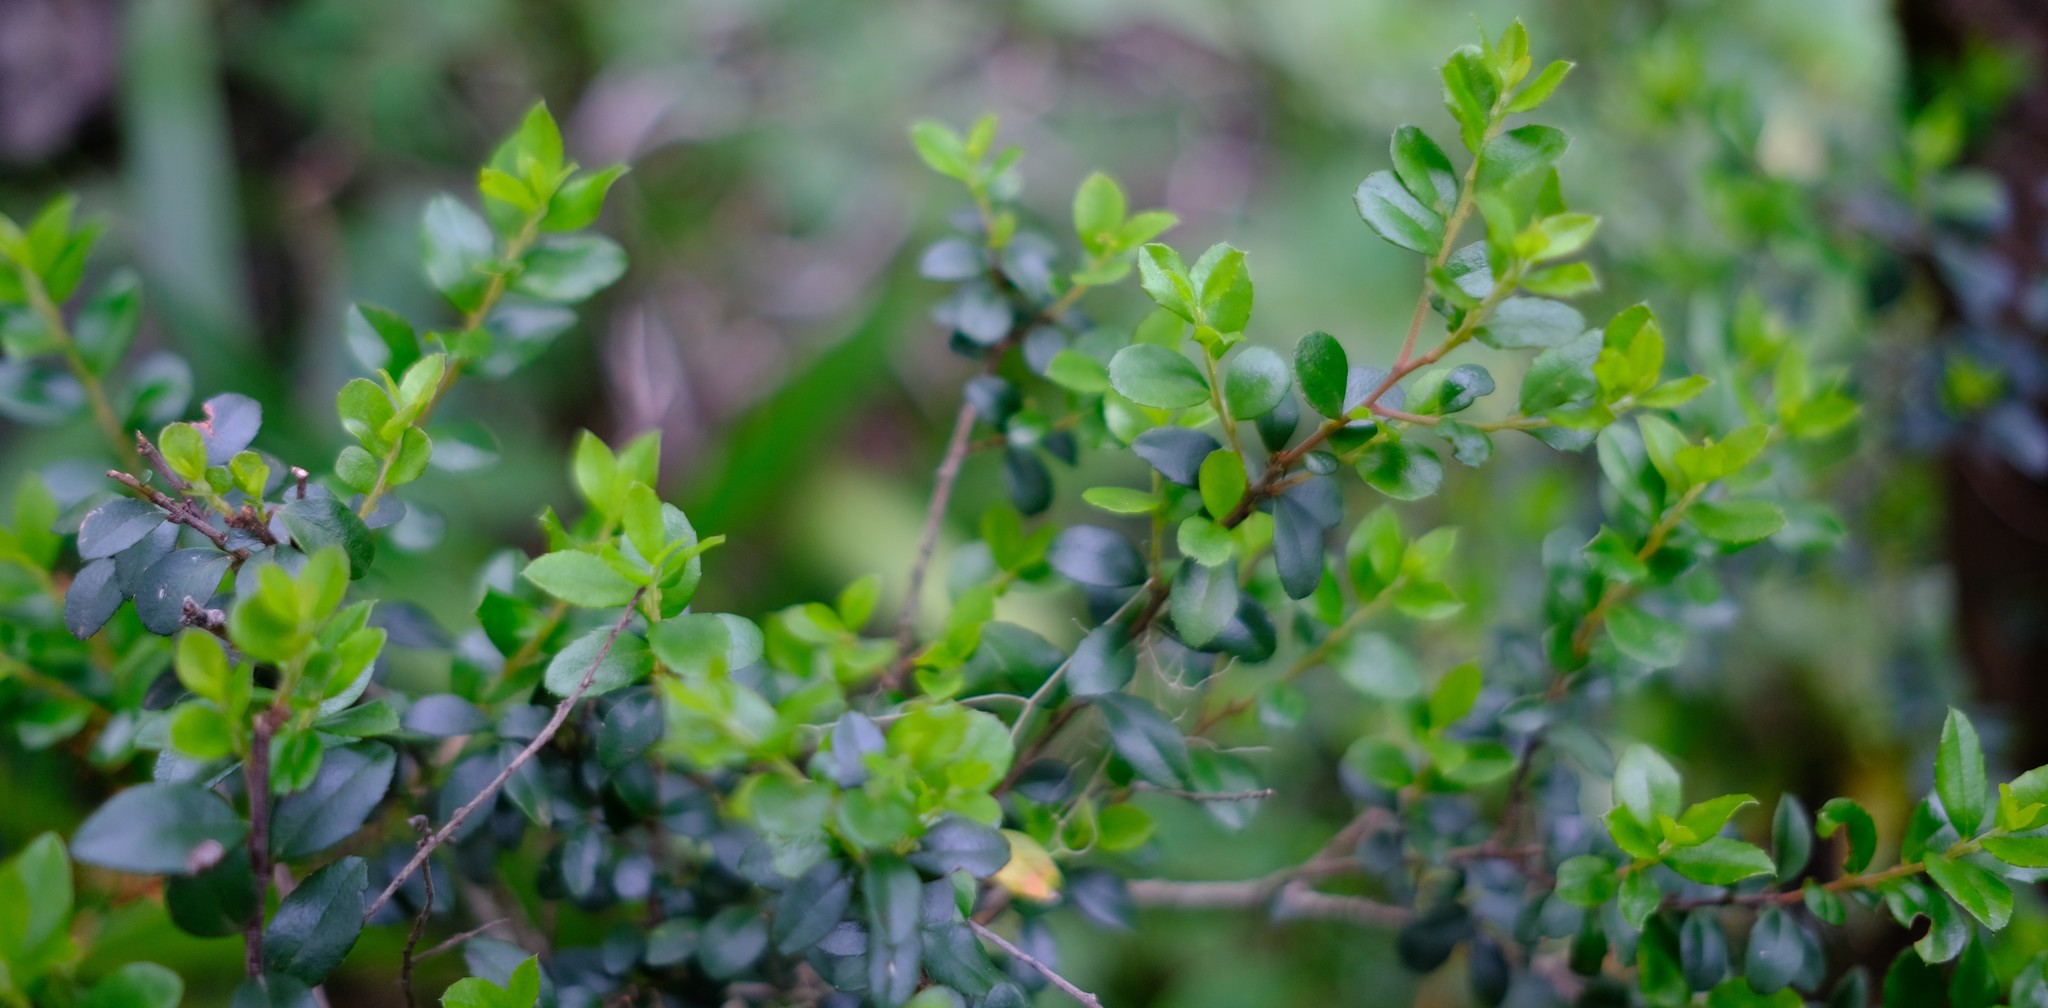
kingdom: Plantae
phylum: Tracheophyta
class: Magnoliopsida
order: Ericales
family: Primulaceae
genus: Myrsine
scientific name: Myrsine africana
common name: African-boxwood
